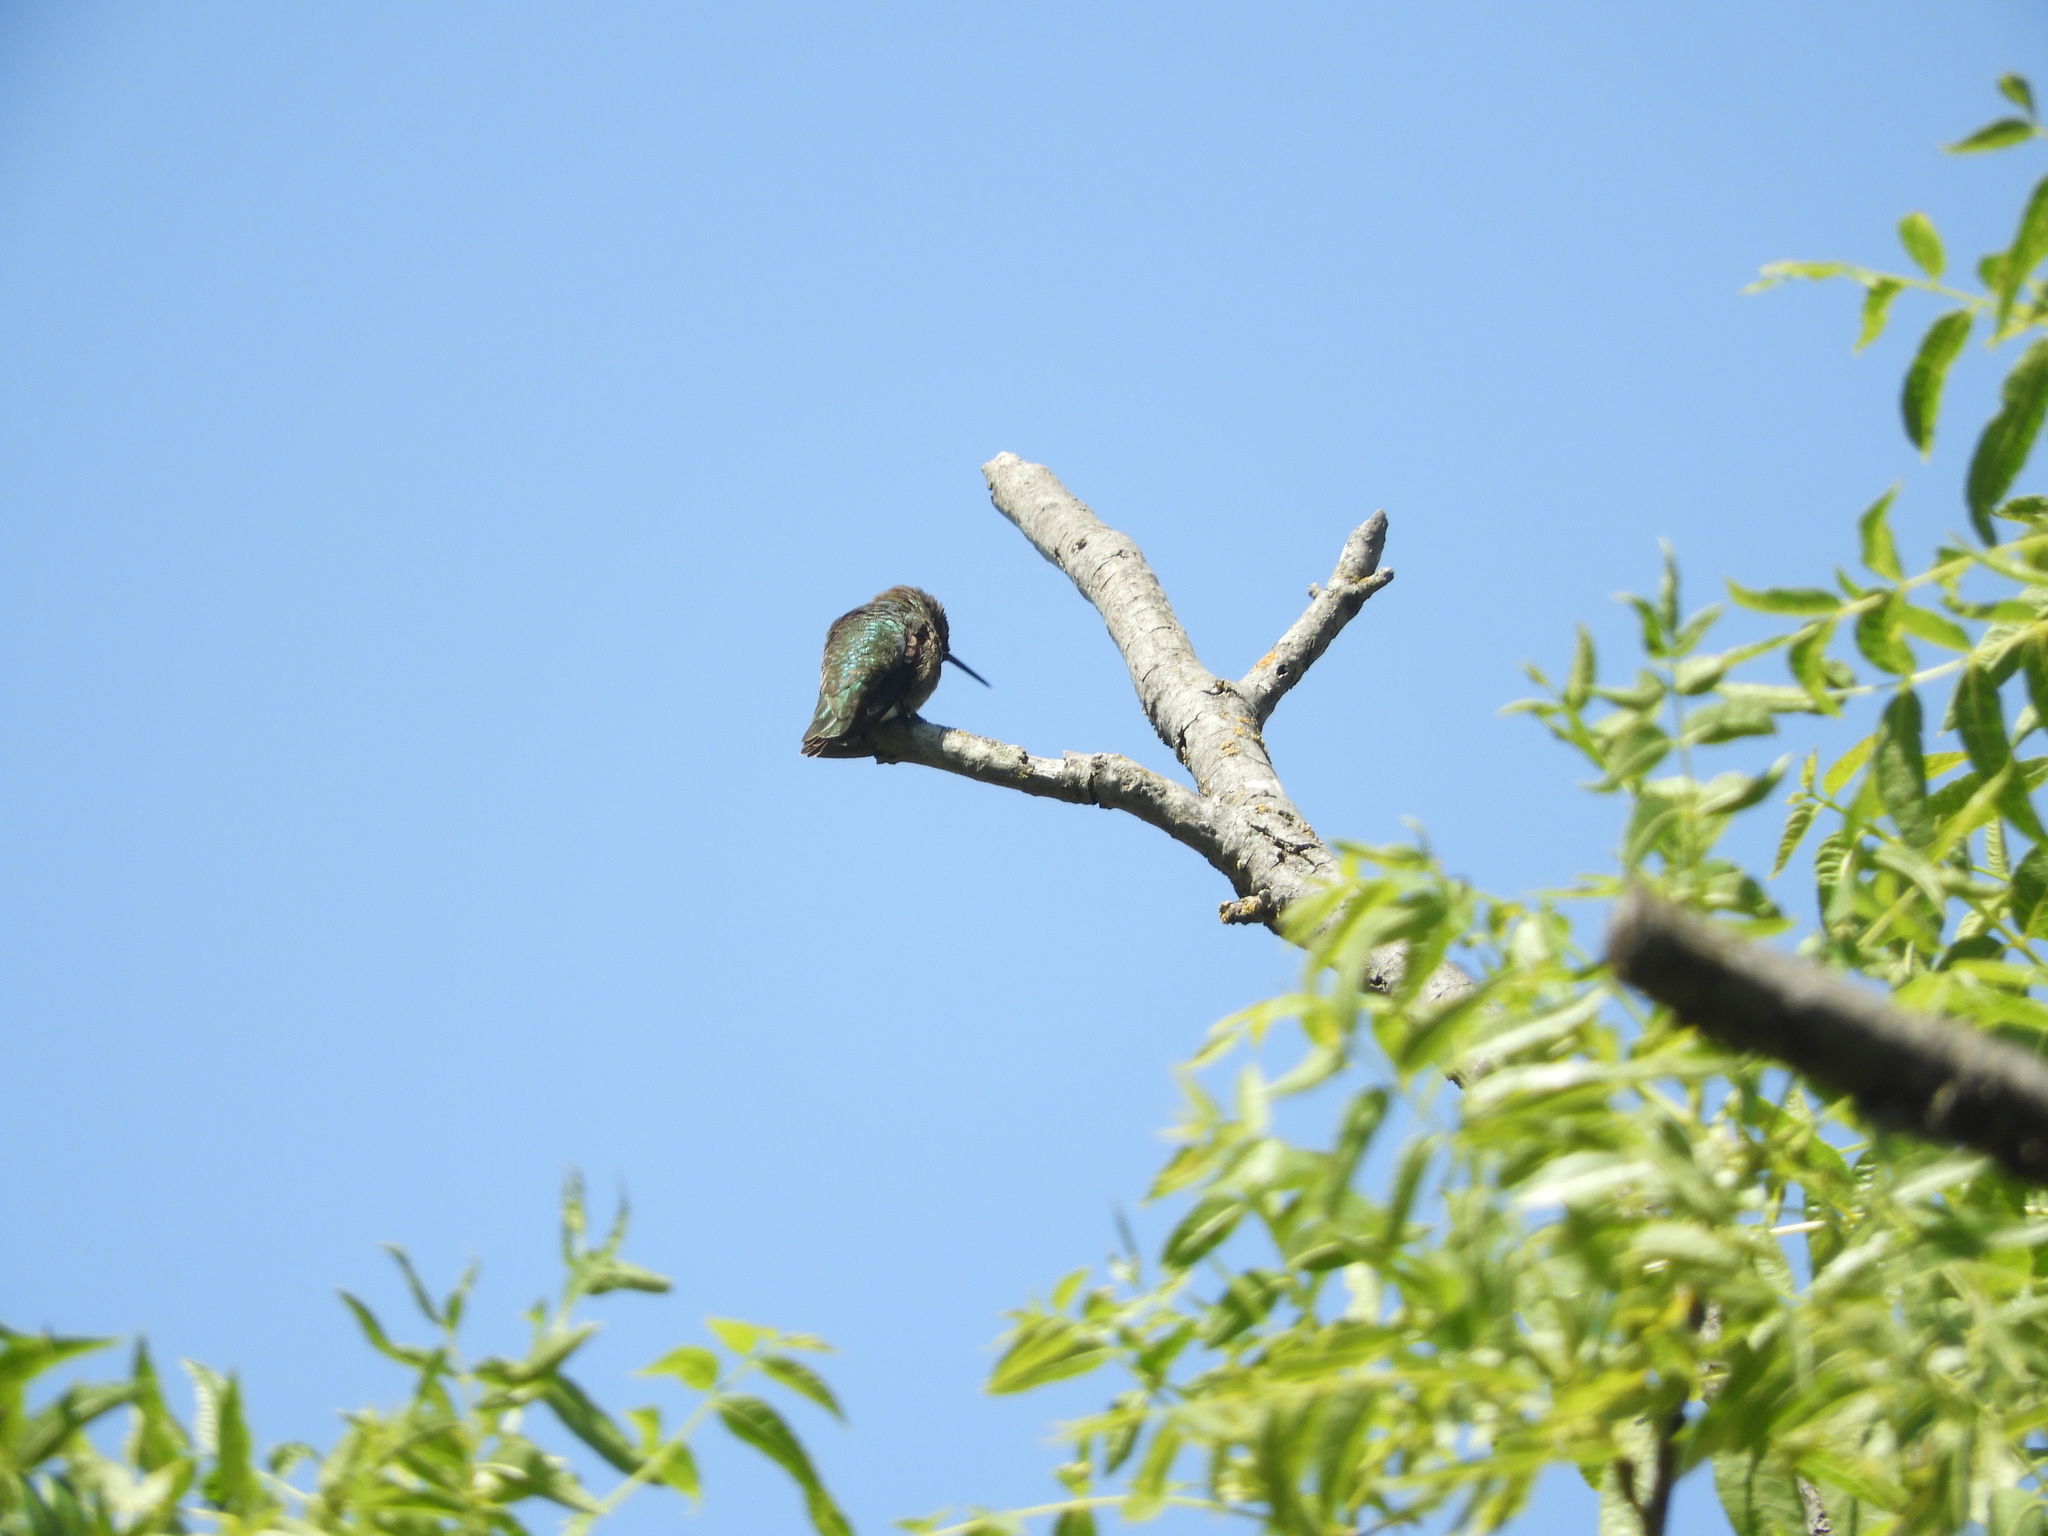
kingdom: Animalia
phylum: Chordata
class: Aves
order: Apodiformes
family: Trochilidae
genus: Calypte
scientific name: Calypte anna
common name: Anna's hummingbird
